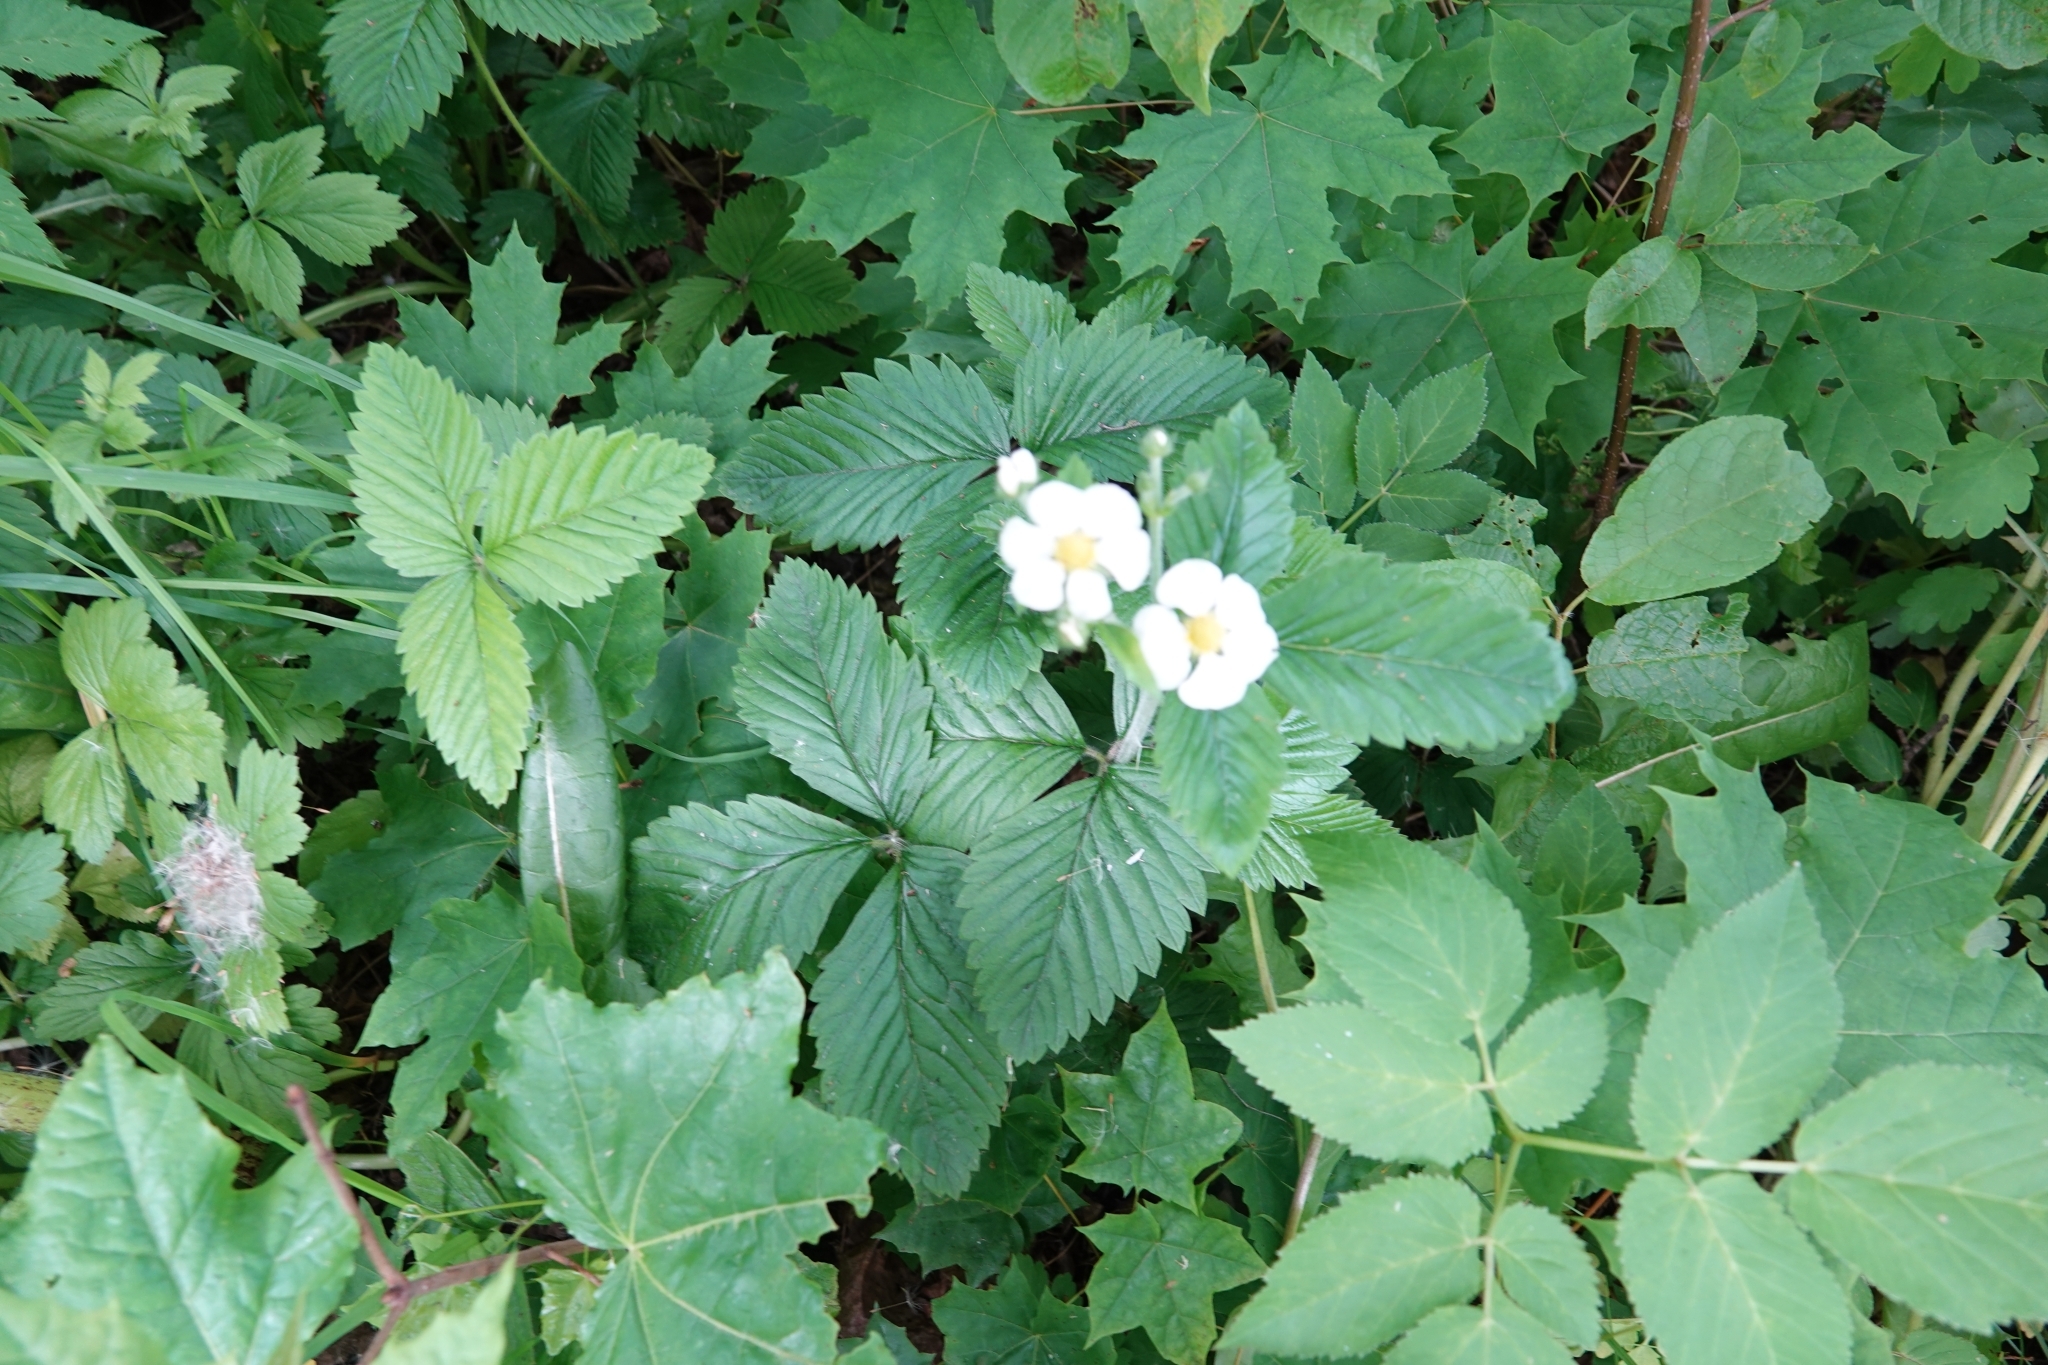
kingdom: Plantae
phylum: Tracheophyta
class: Magnoliopsida
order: Rosales
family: Rosaceae
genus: Fragaria
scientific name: Fragaria moschata
